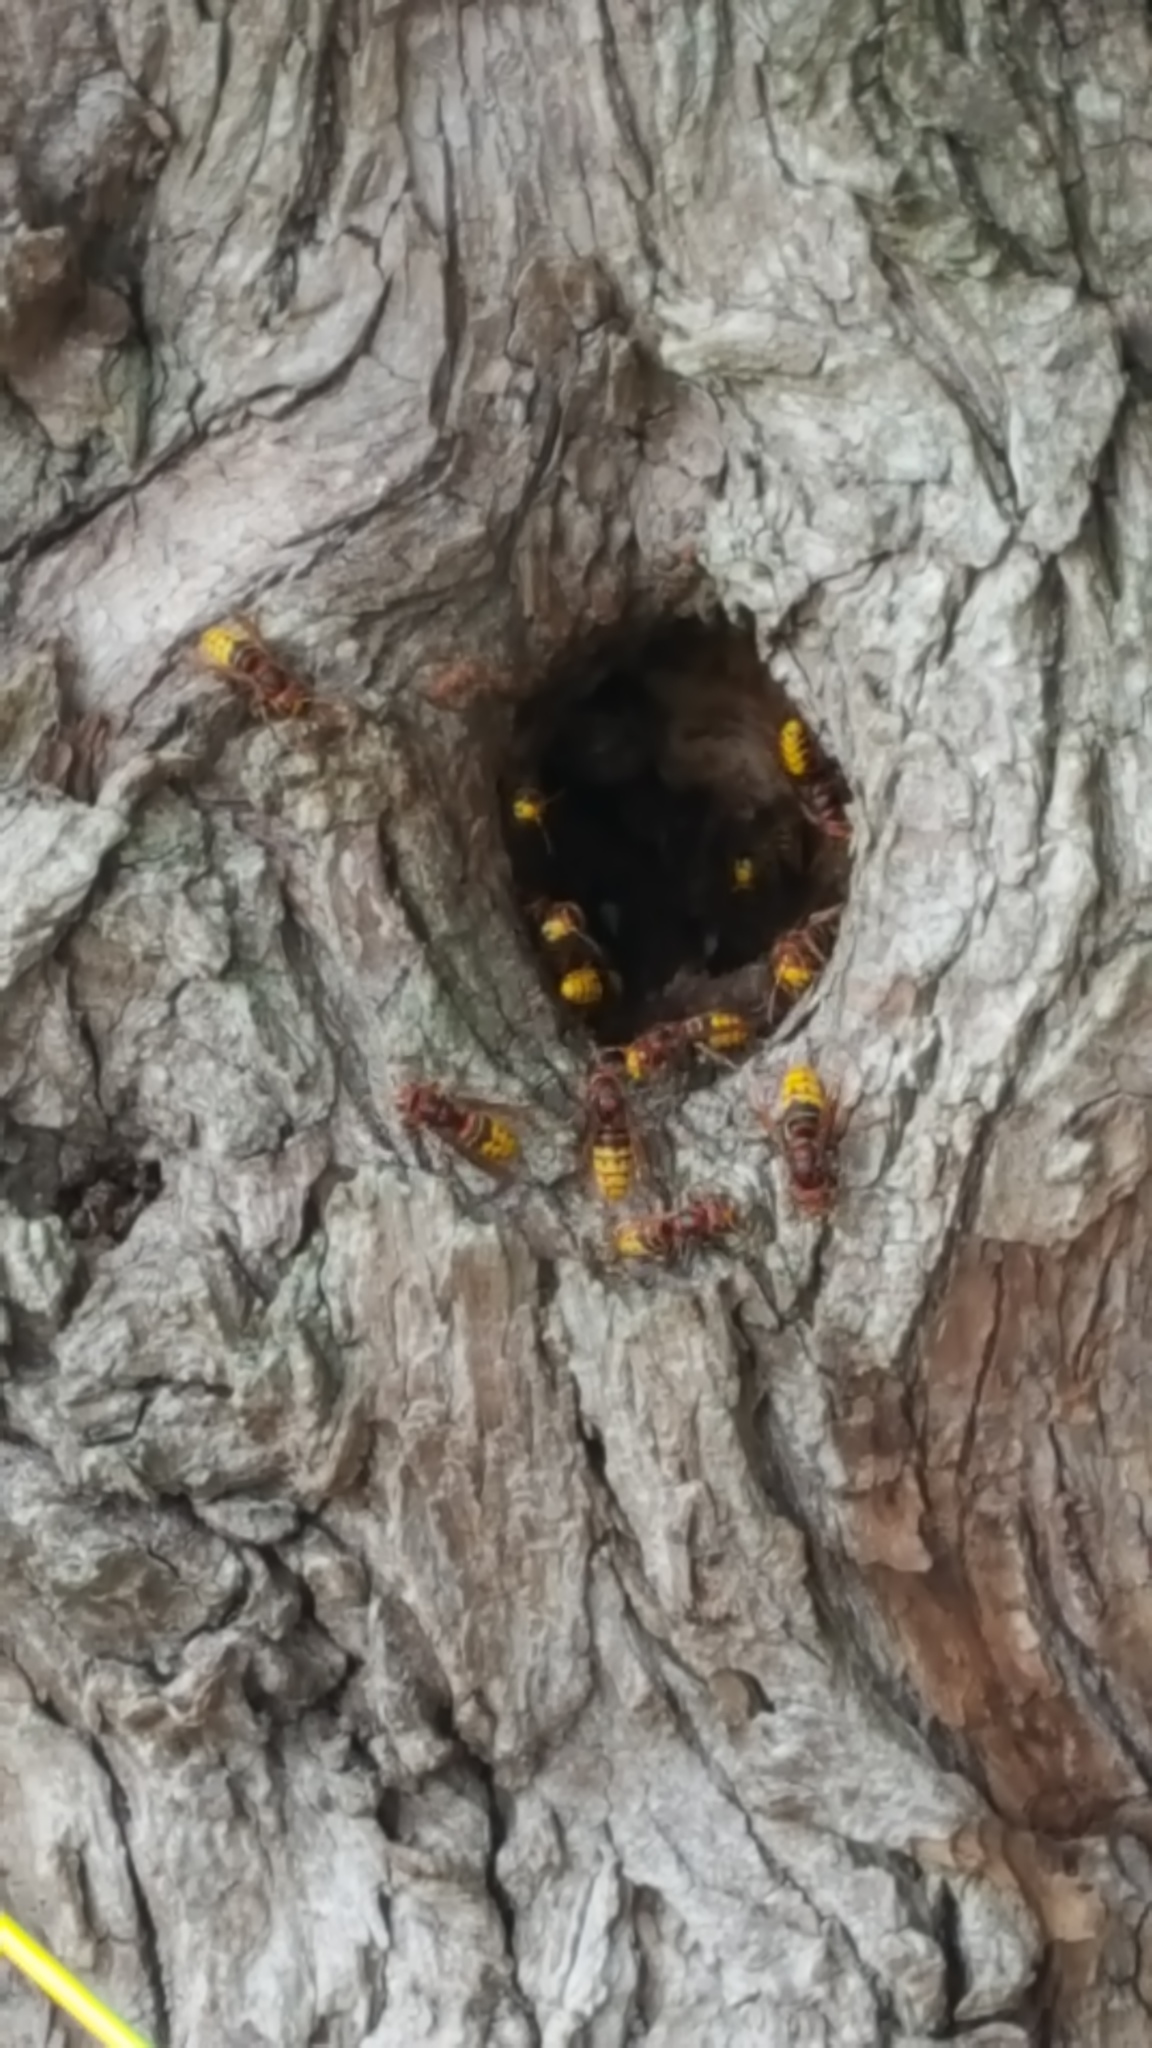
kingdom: Animalia
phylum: Arthropoda
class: Insecta
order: Hymenoptera
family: Vespidae
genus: Vespa
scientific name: Vespa crabro
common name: Hornet
